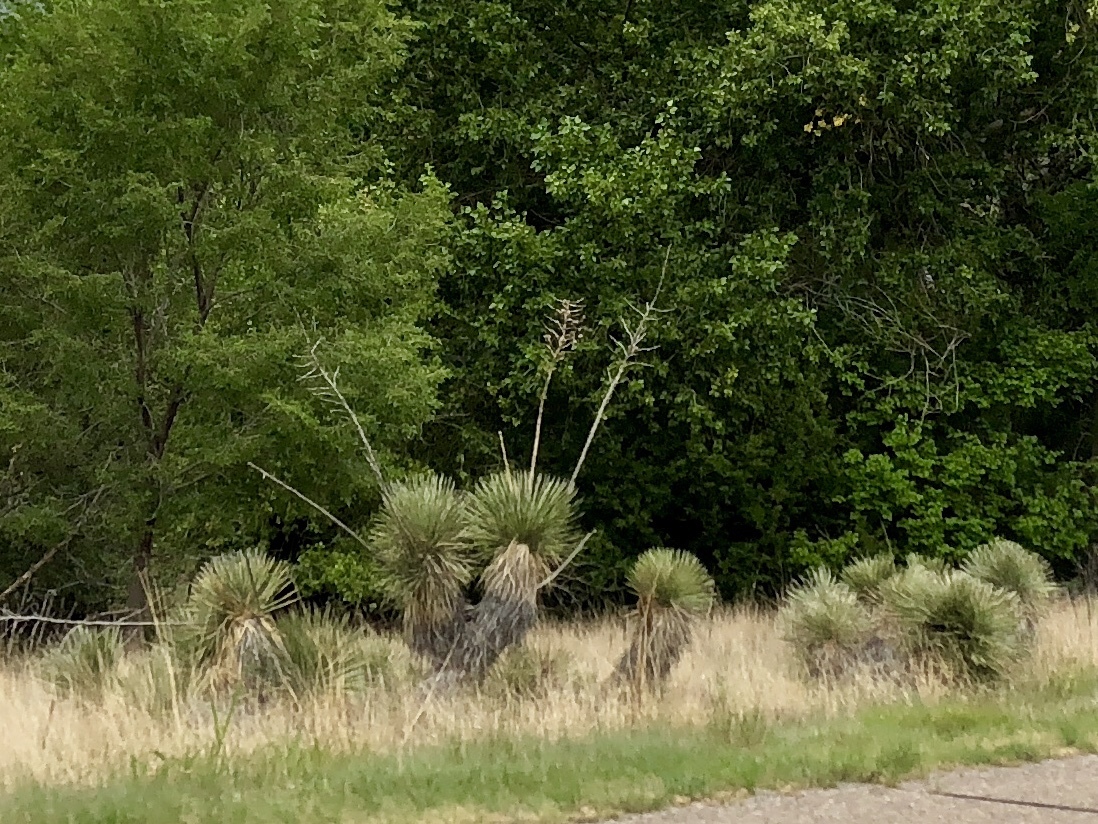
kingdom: Plantae
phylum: Tracheophyta
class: Liliopsida
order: Asparagales
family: Asparagaceae
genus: Yucca
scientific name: Yucca elata
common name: Palmella
